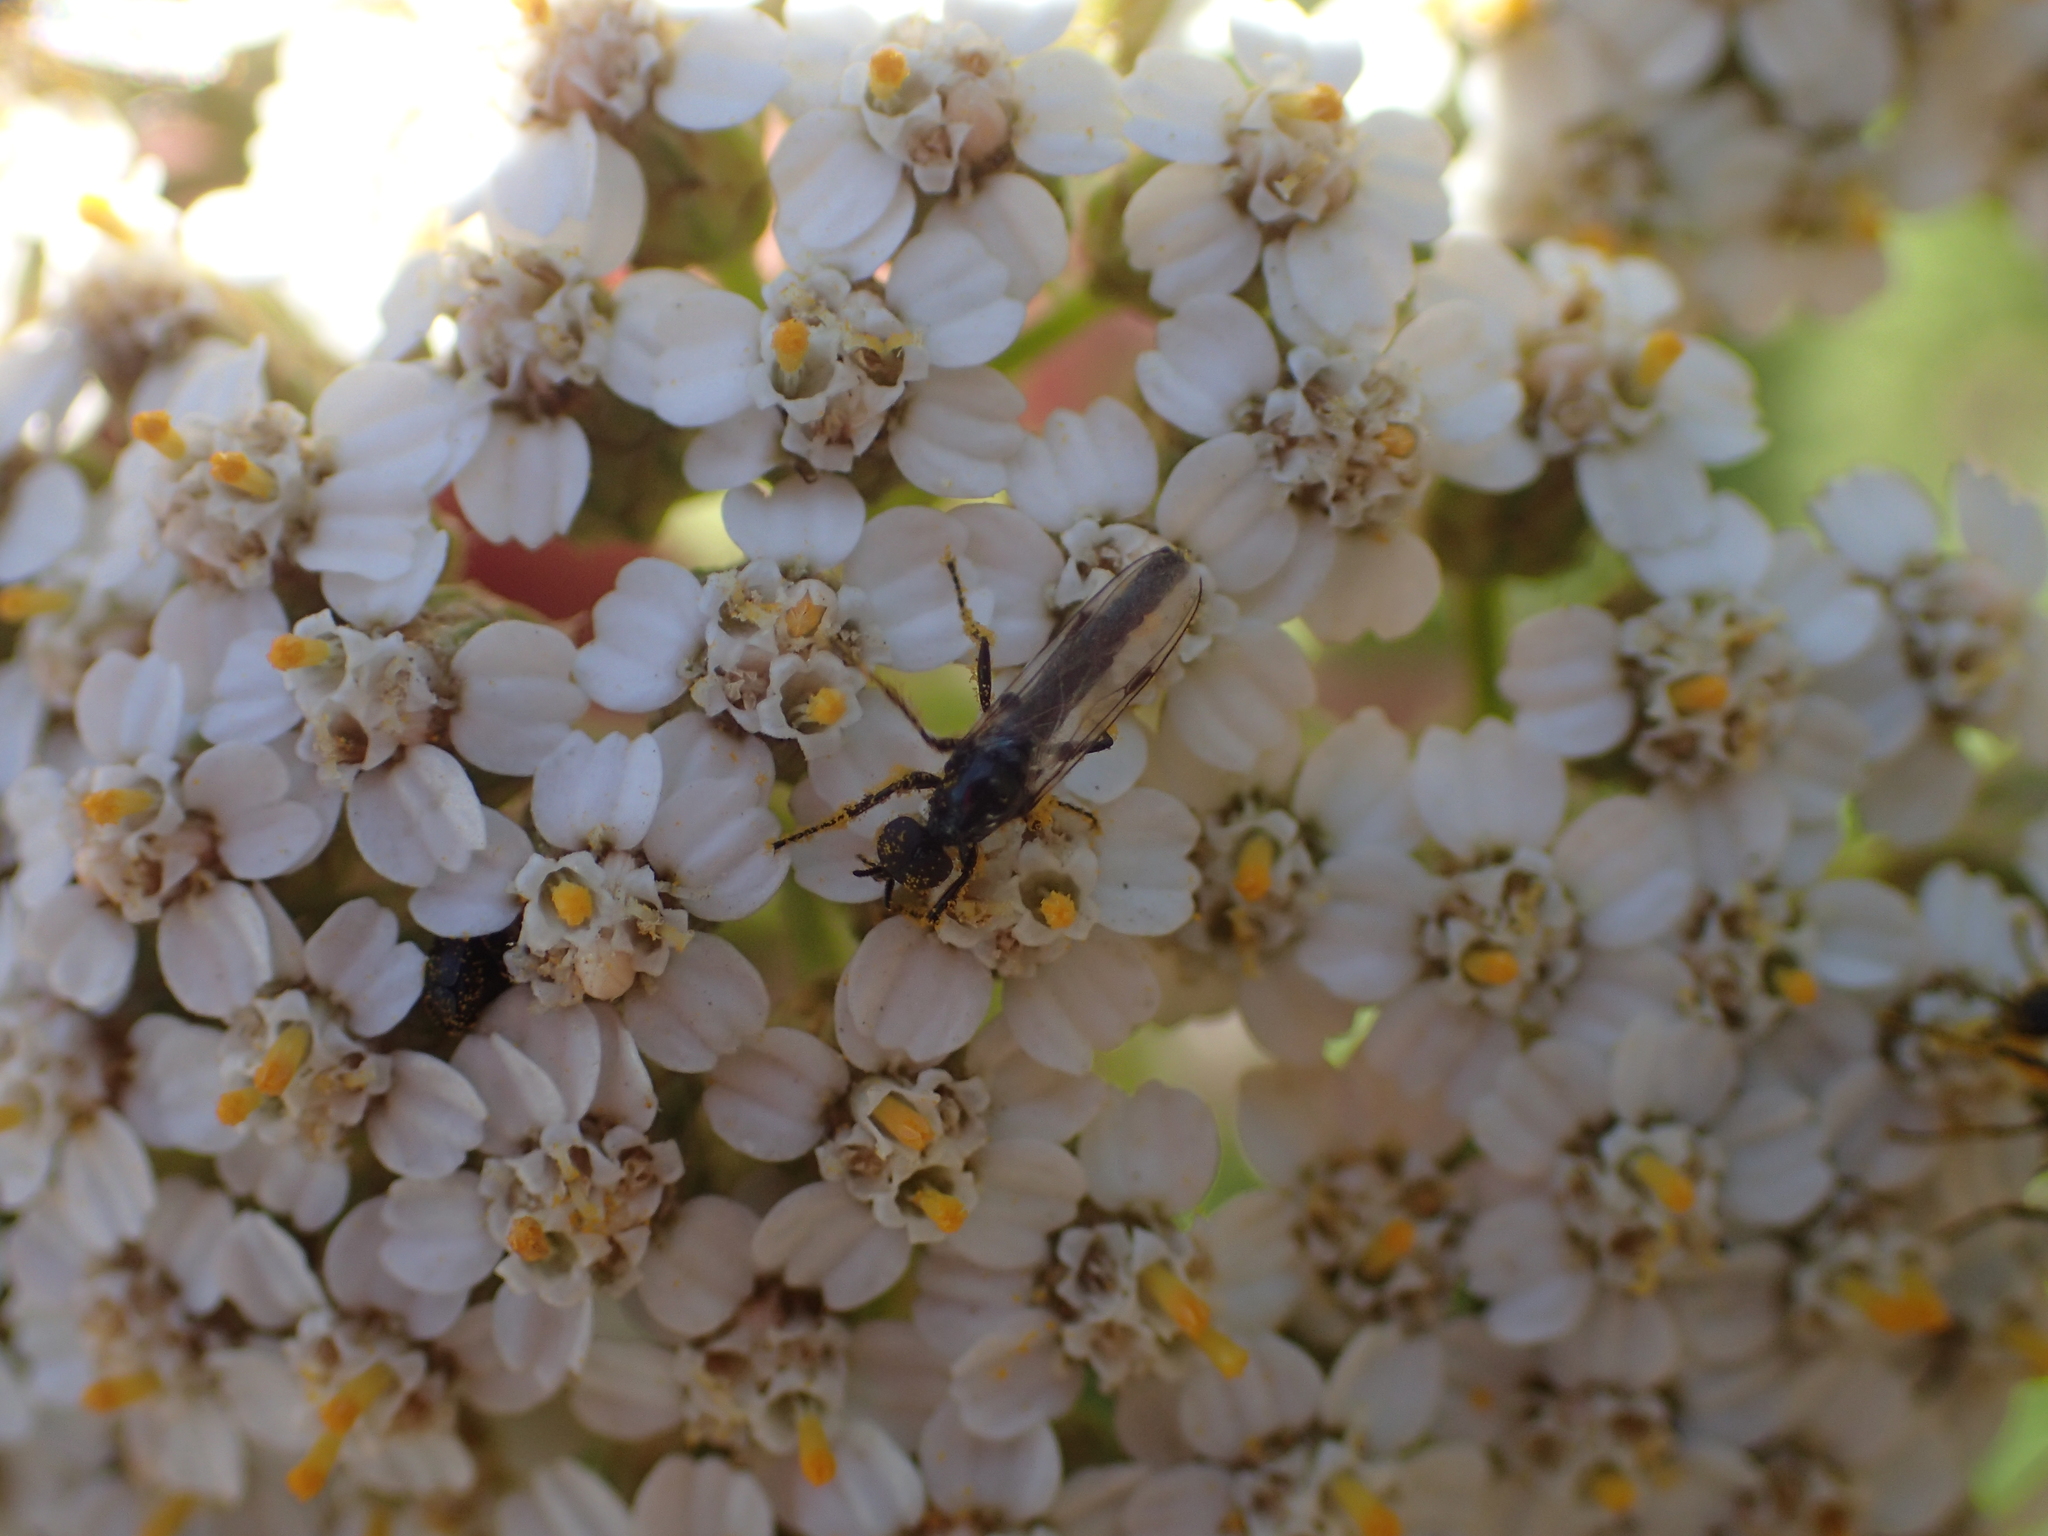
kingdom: Animalia
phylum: Arthropoda
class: Insecta
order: Diptera
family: Bibionidae
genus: Dilophus
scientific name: Dilophus
